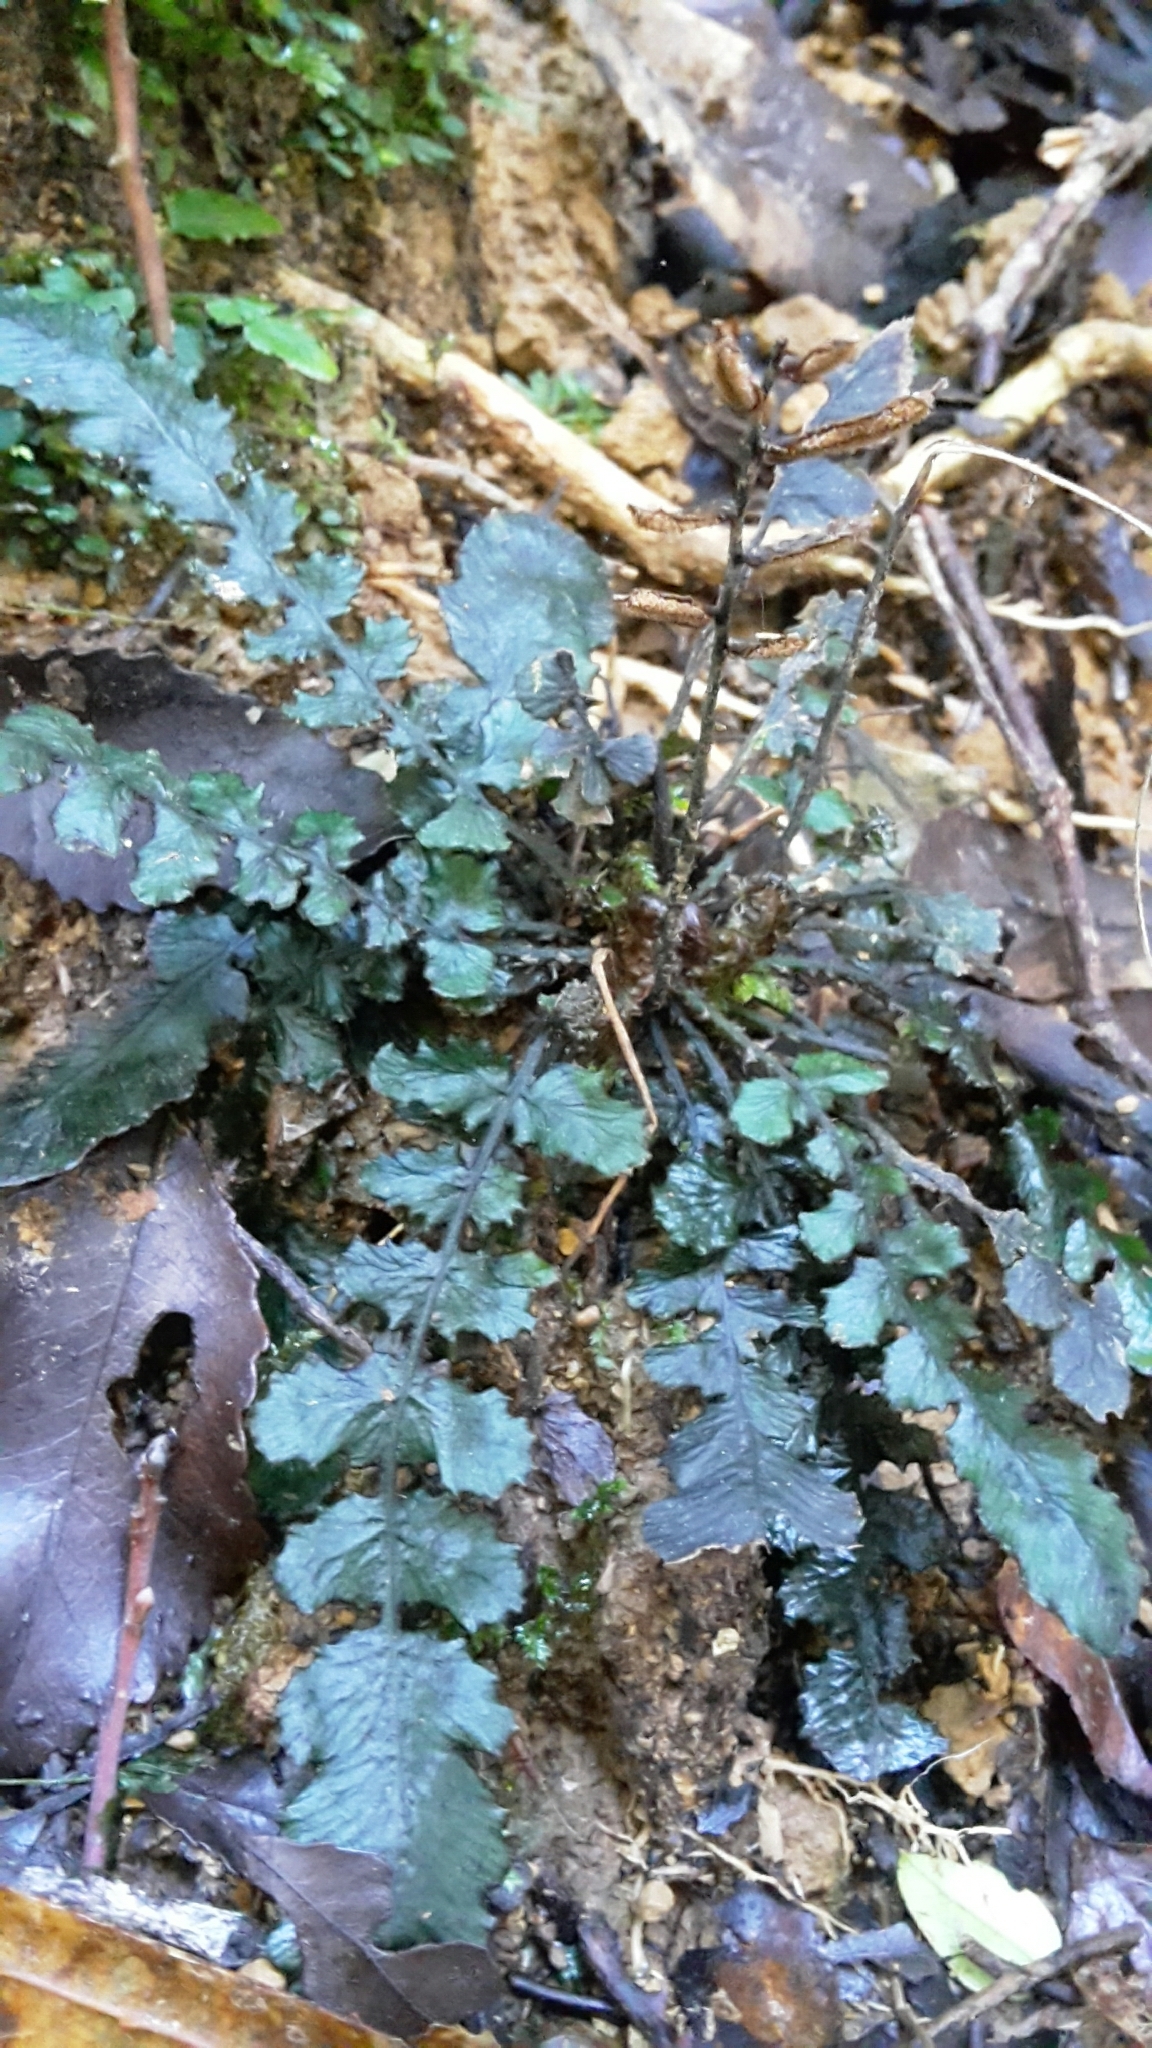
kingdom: Plantae
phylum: Tracheophyta
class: Polypodiopsida
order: Polypodiales
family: Blechnaceae
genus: Cranfillia
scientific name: Cranfillia nigra
